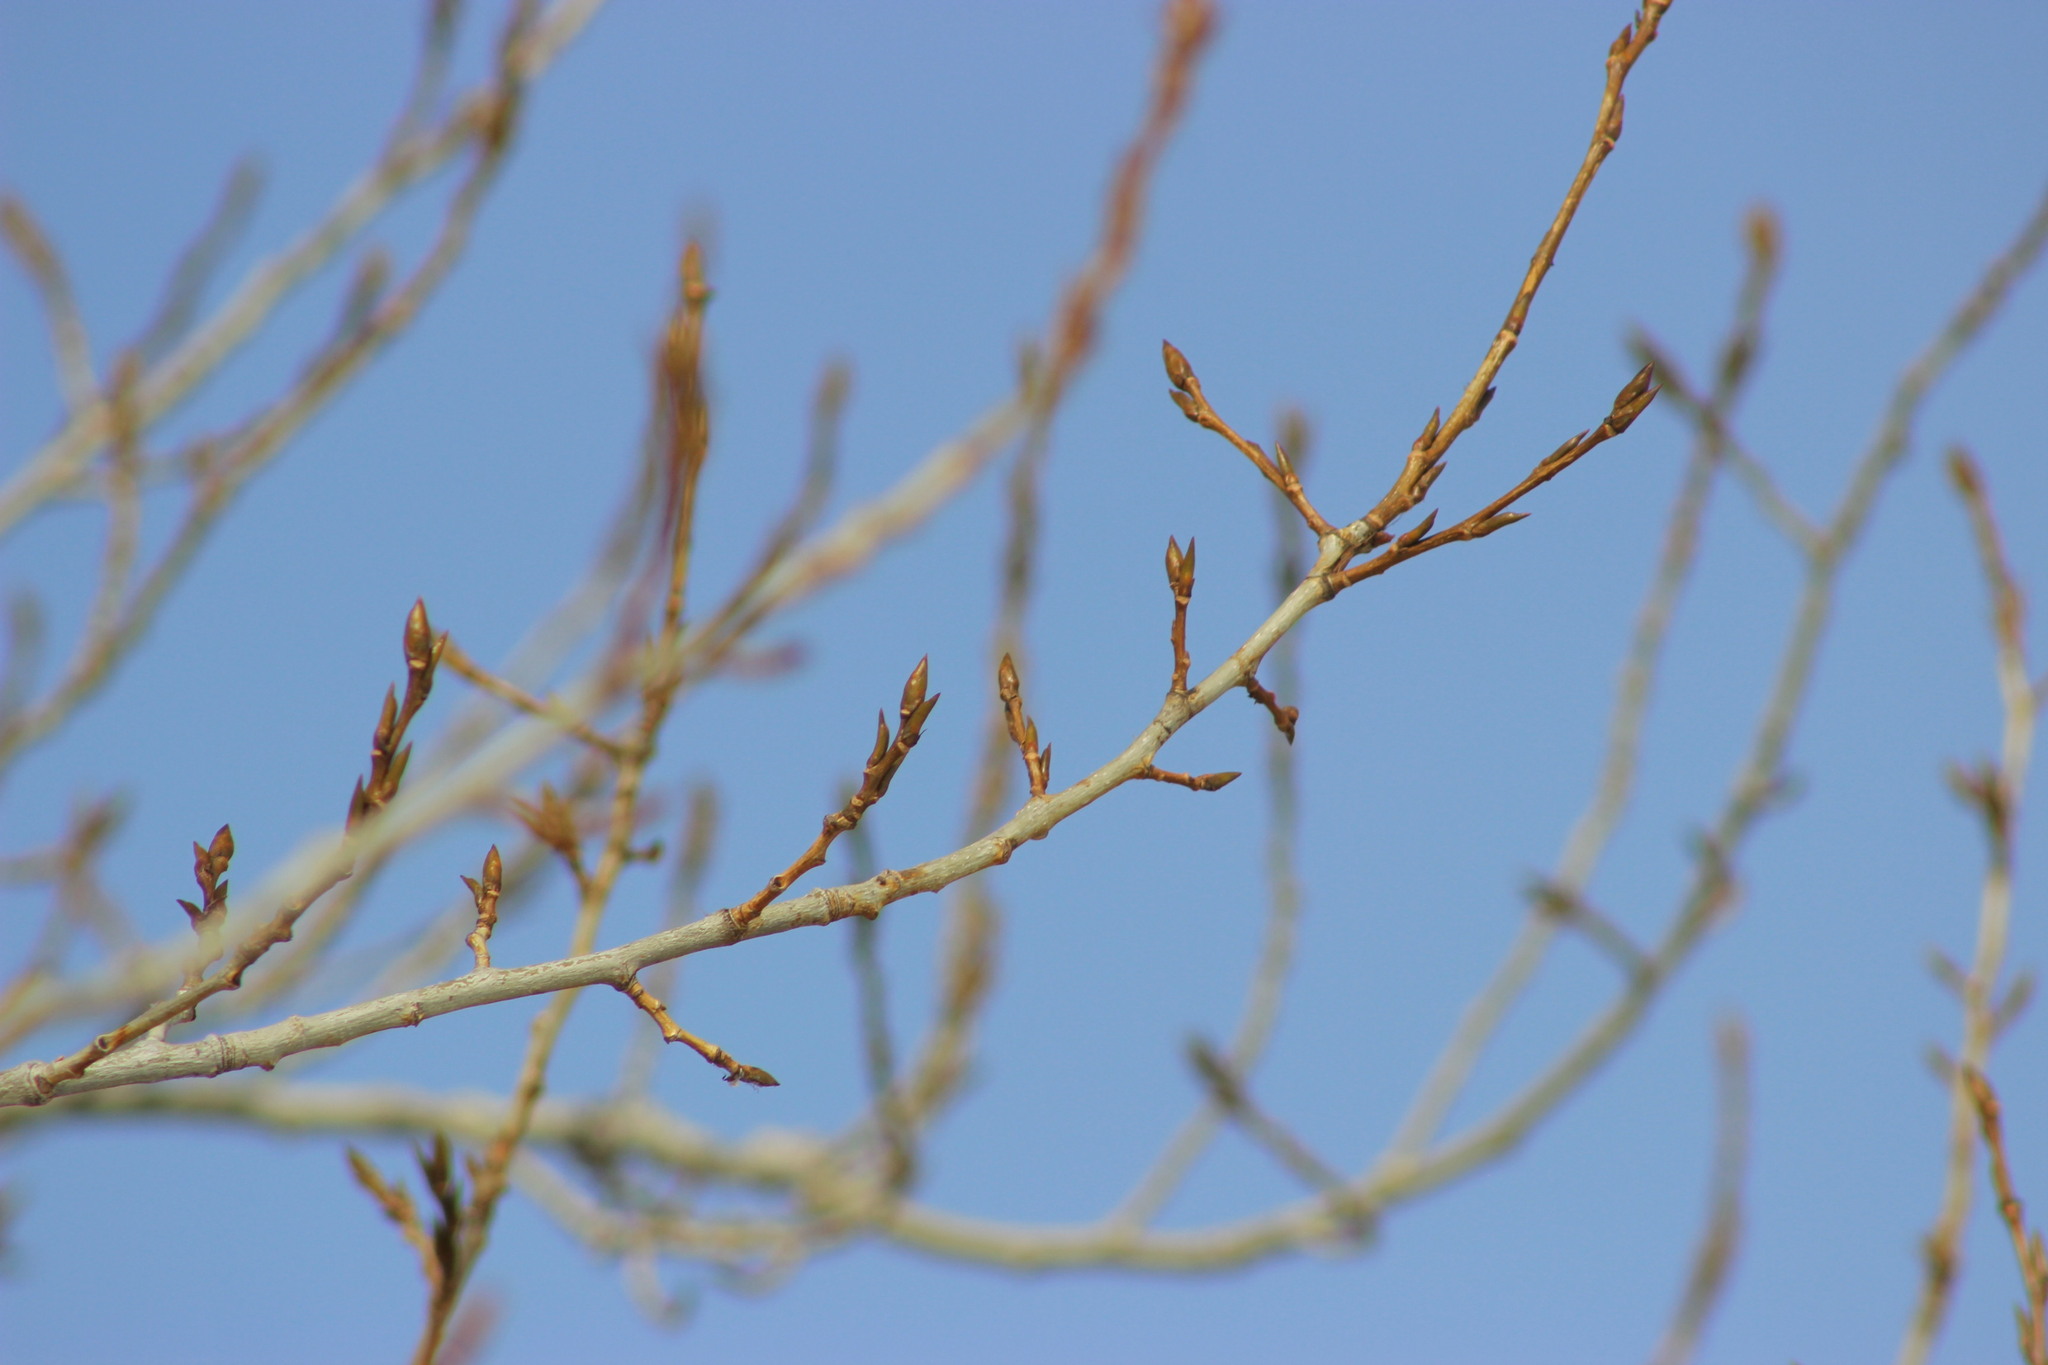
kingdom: Plantae
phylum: Tracheophyta
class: Magnoliopsida
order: Malpighiales
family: Salicaceae
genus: Populus
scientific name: Populus tremula
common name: European aspen
